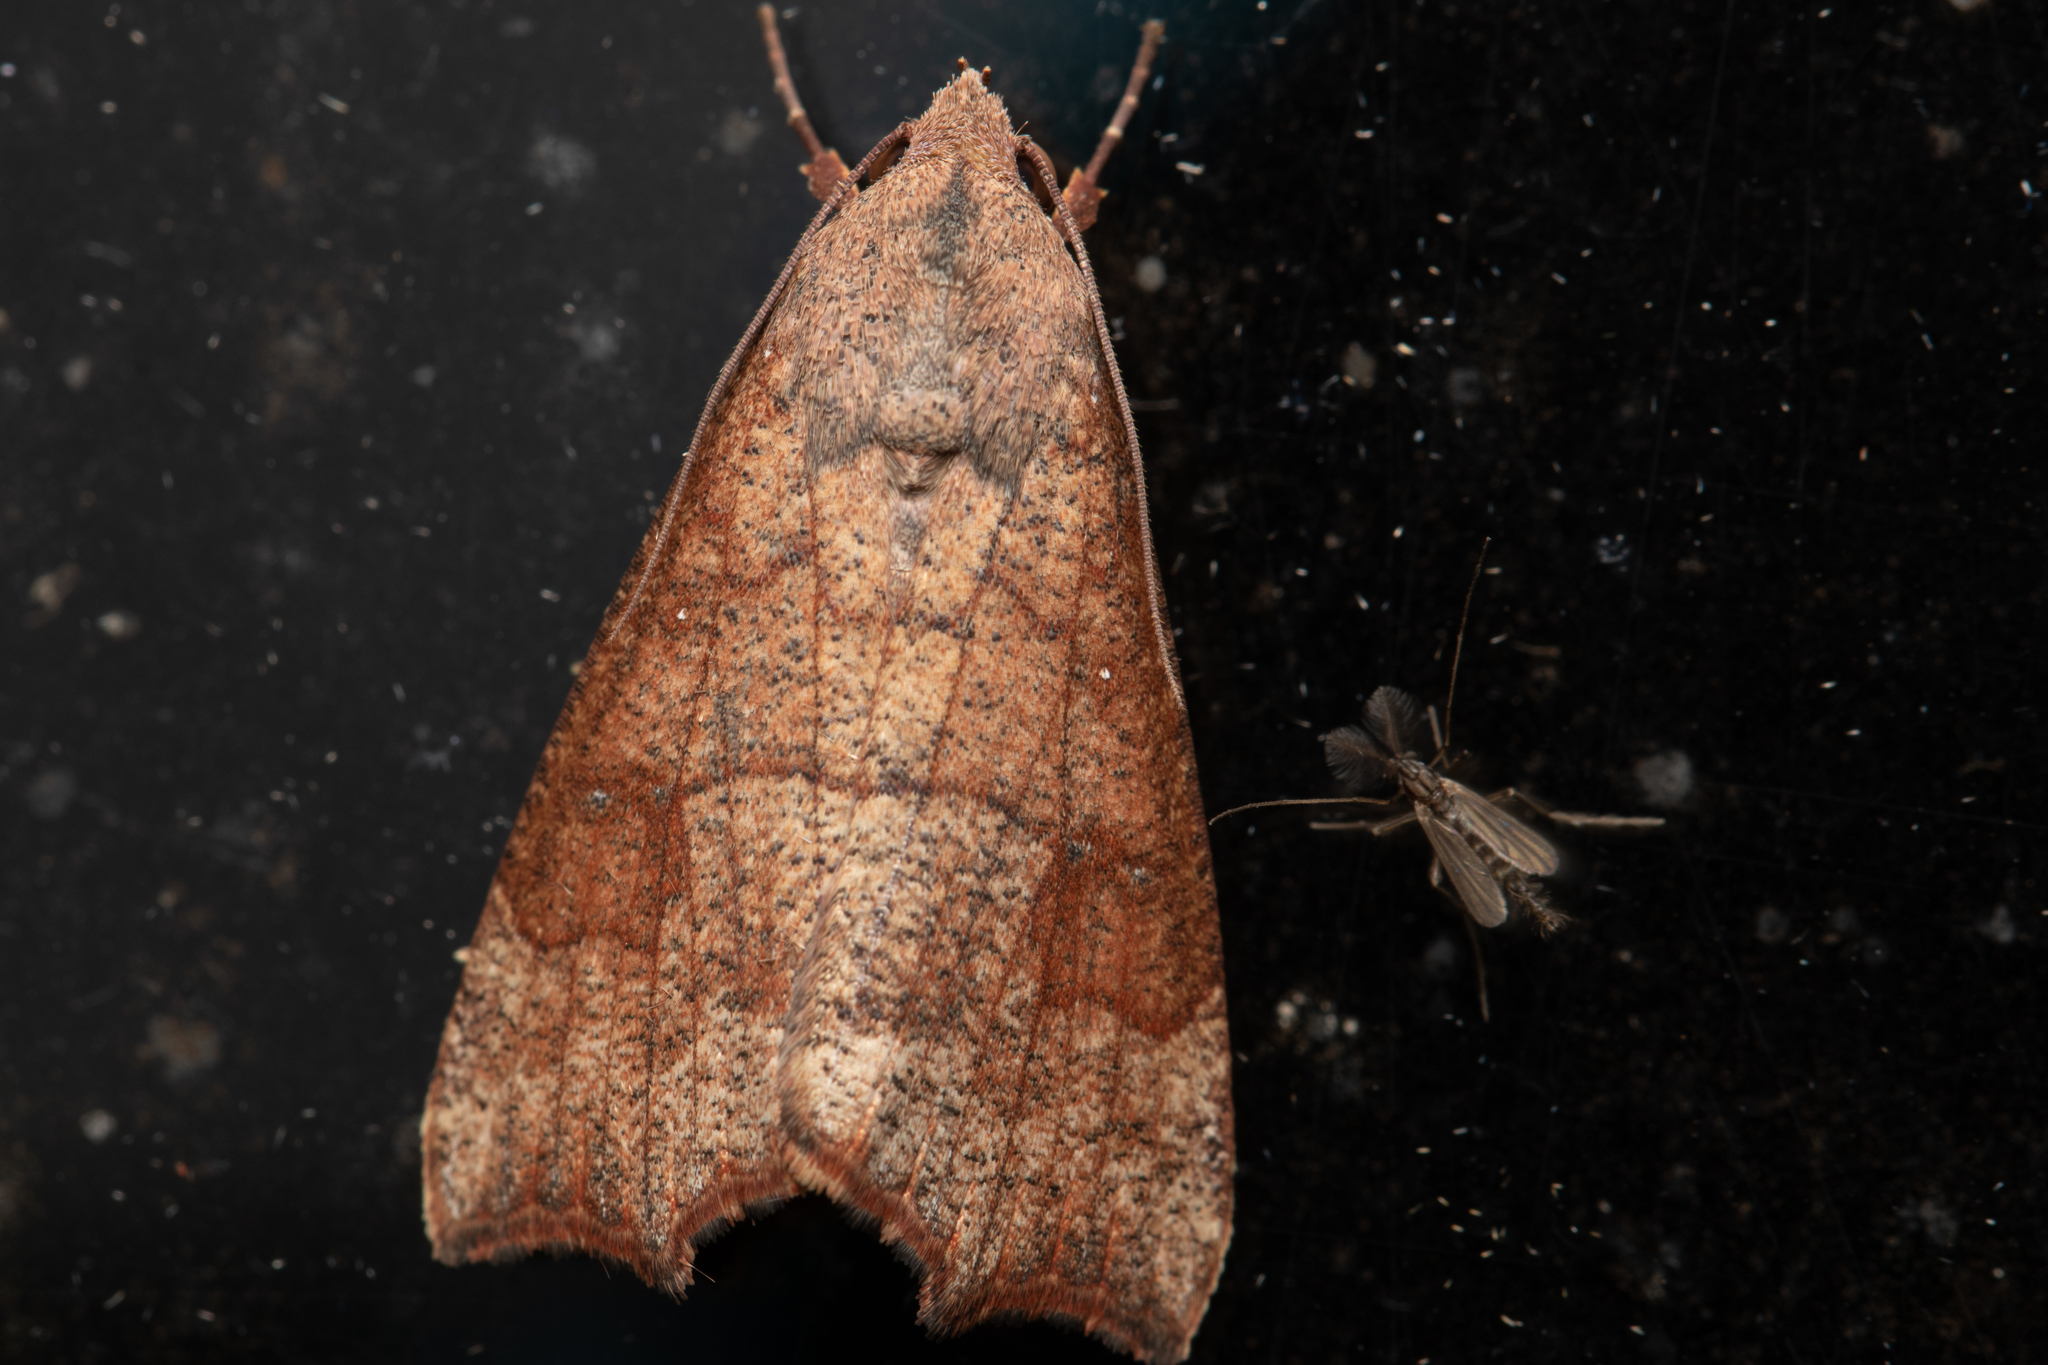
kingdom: Animalia
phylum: Arthropoda
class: Insecta
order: Lepidoptera
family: Erebidae
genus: Gonitis
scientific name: Gonitis involuta
